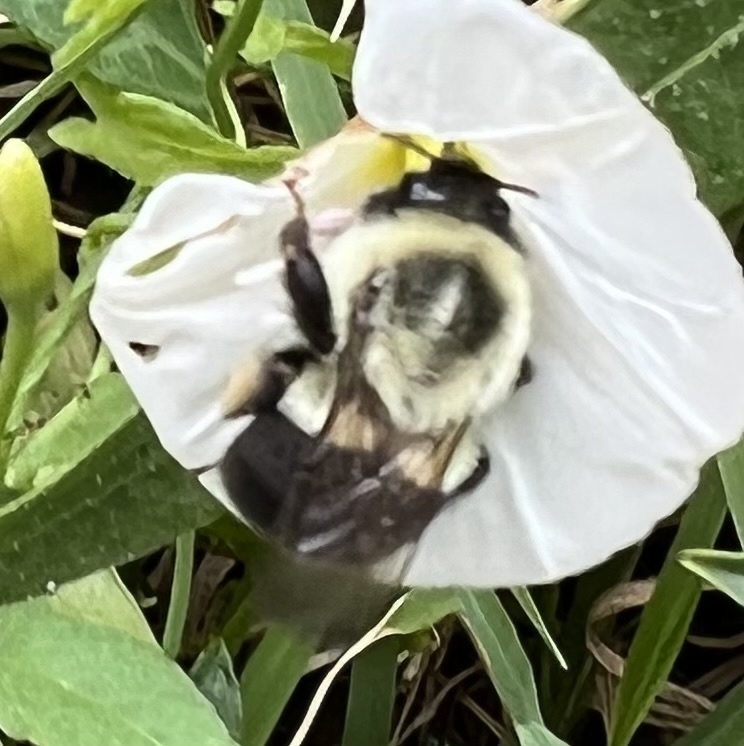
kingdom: Animalia
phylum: Arthropoda
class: Insecta
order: Hymenoptera
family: Apidae
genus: Bombus
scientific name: Bombus impatiens
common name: Common eastern bumble bee
